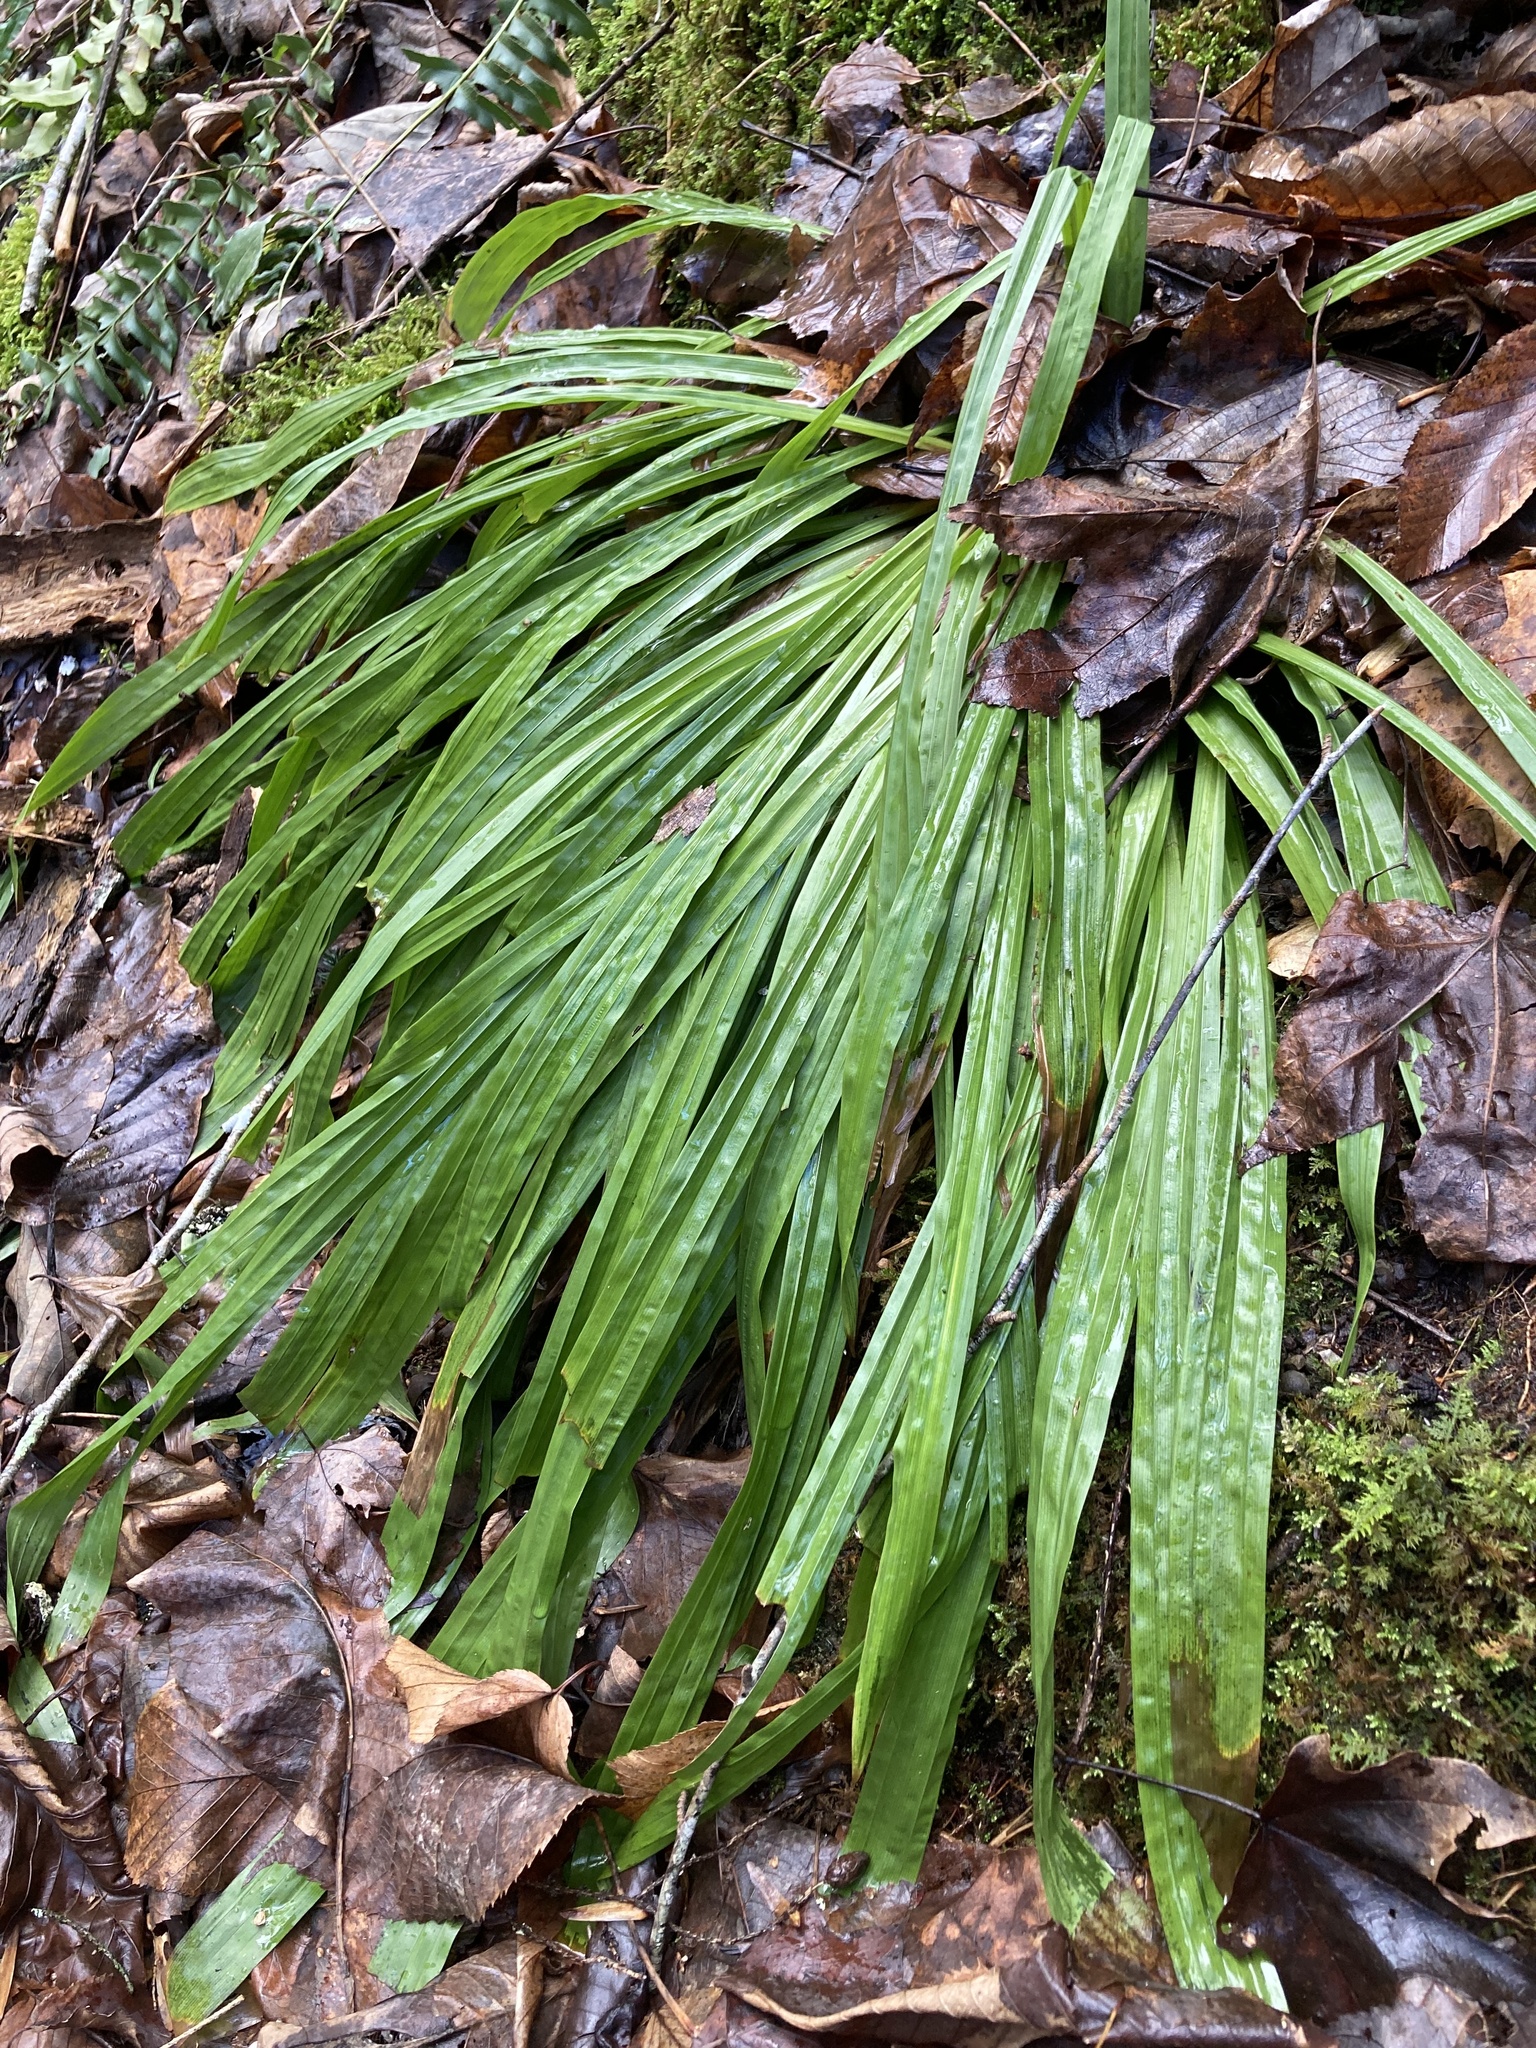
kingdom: Plantae
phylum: Tracheophyta
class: Liliopsida
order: Poales
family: Cyperaceae
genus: Carex
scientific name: Carex plantaginea
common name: Plantain-leaved sedge
